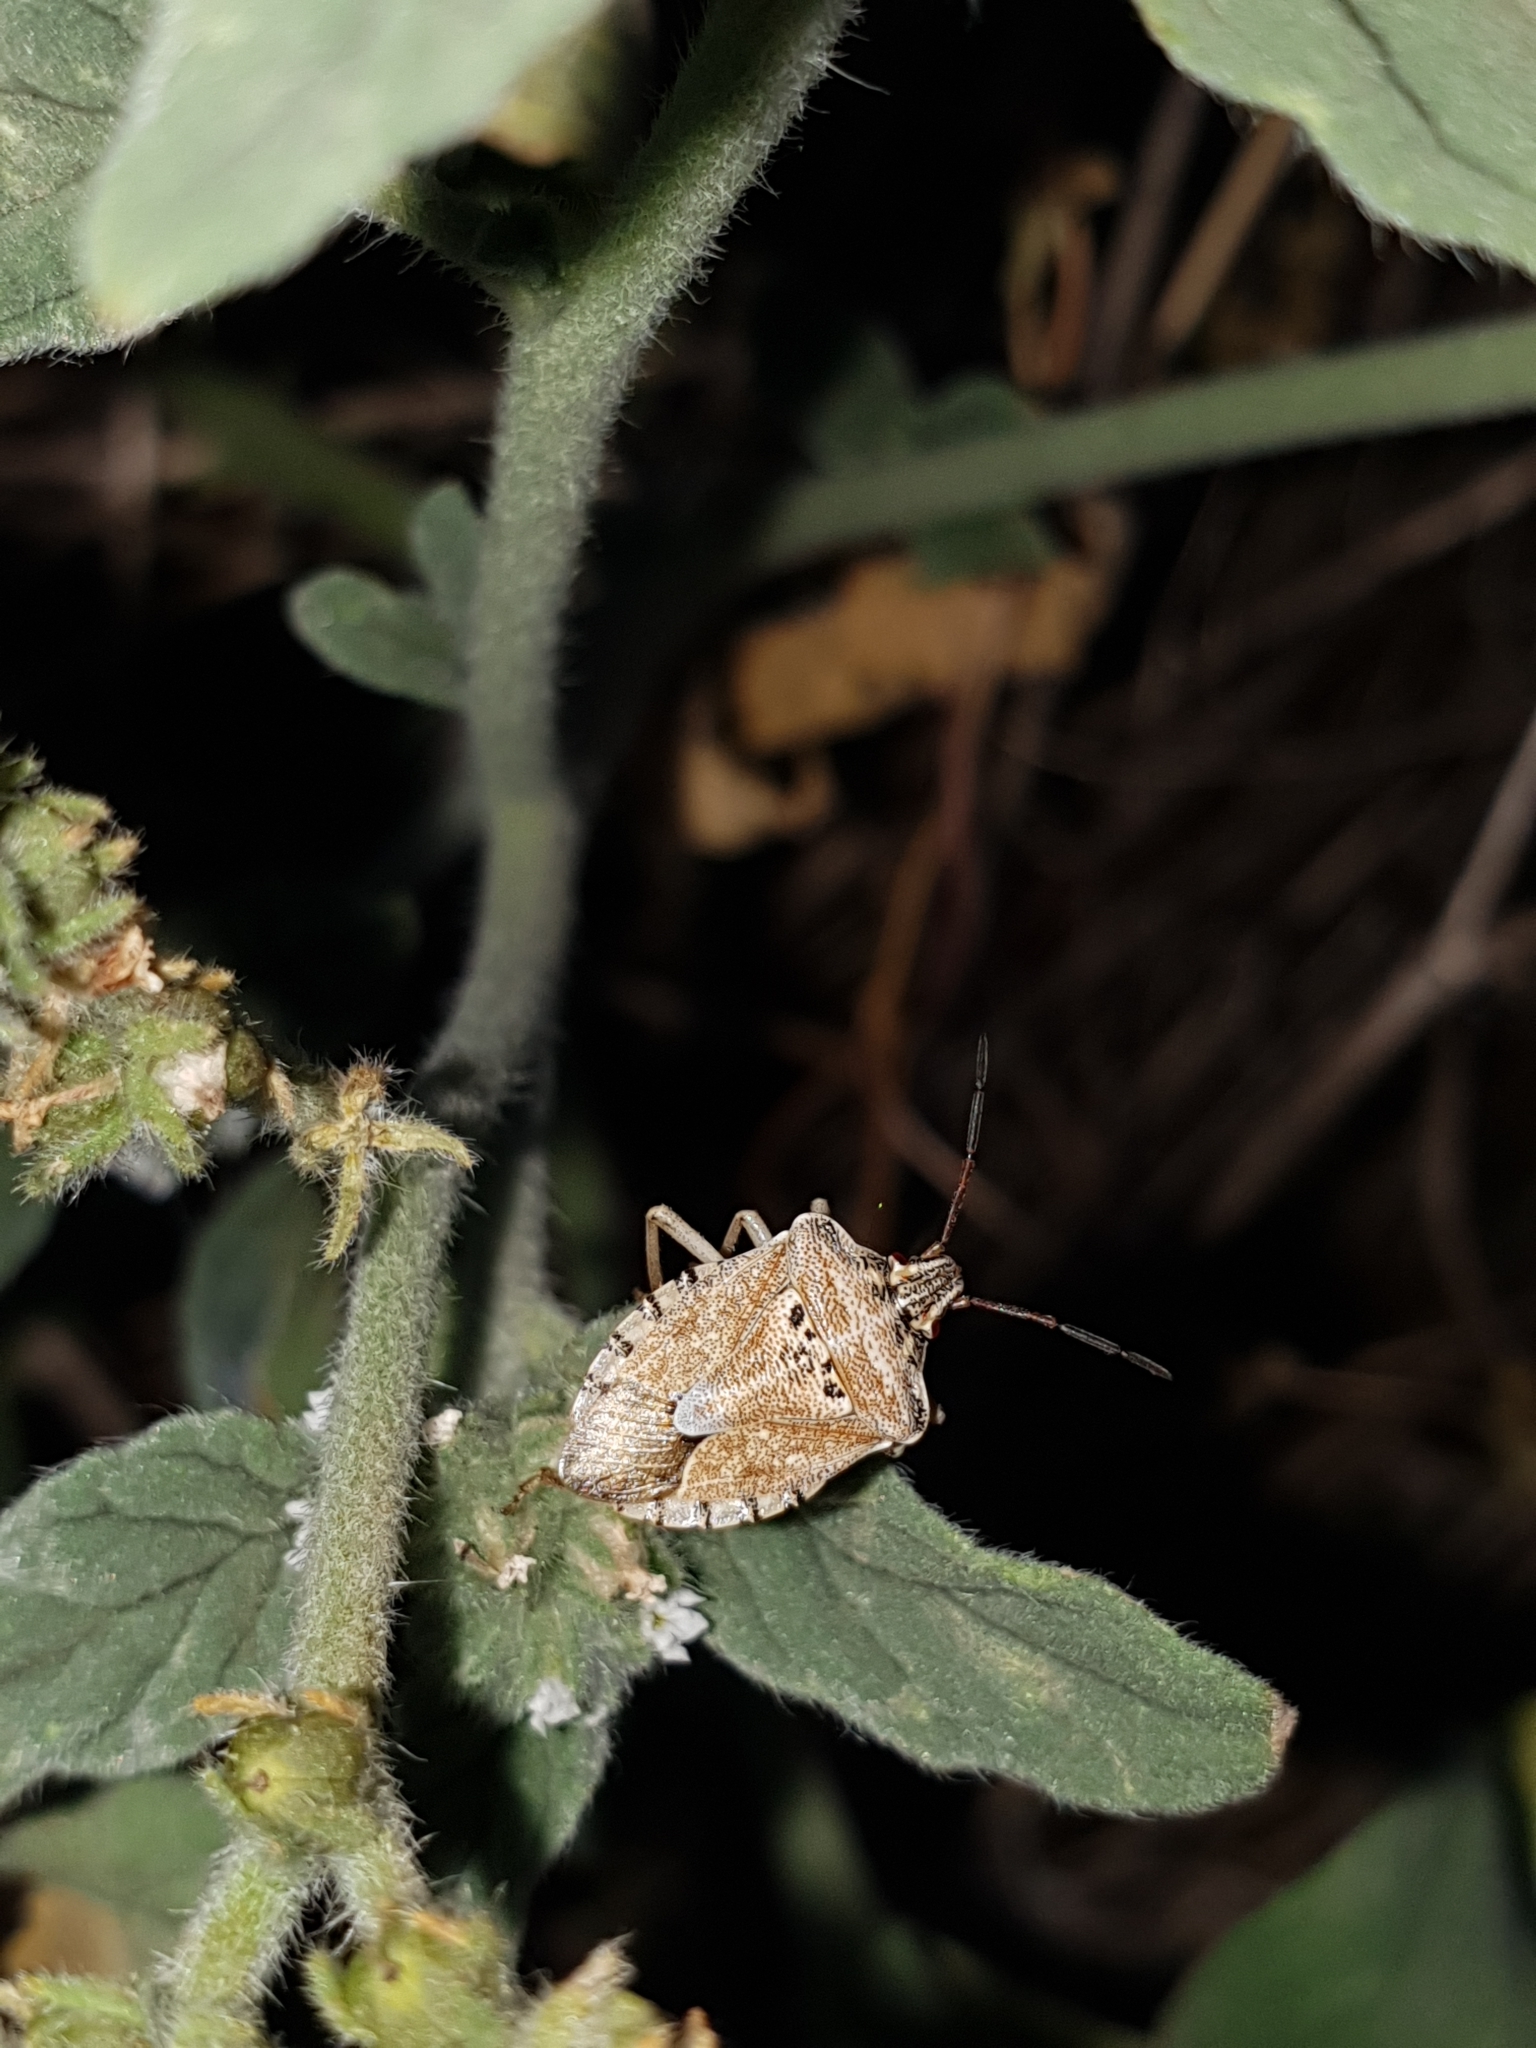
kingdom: Animalia
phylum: Arthropoda
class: Insecta
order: Hemiptera
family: Miridae
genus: Orthops
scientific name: Orthops kalmii
